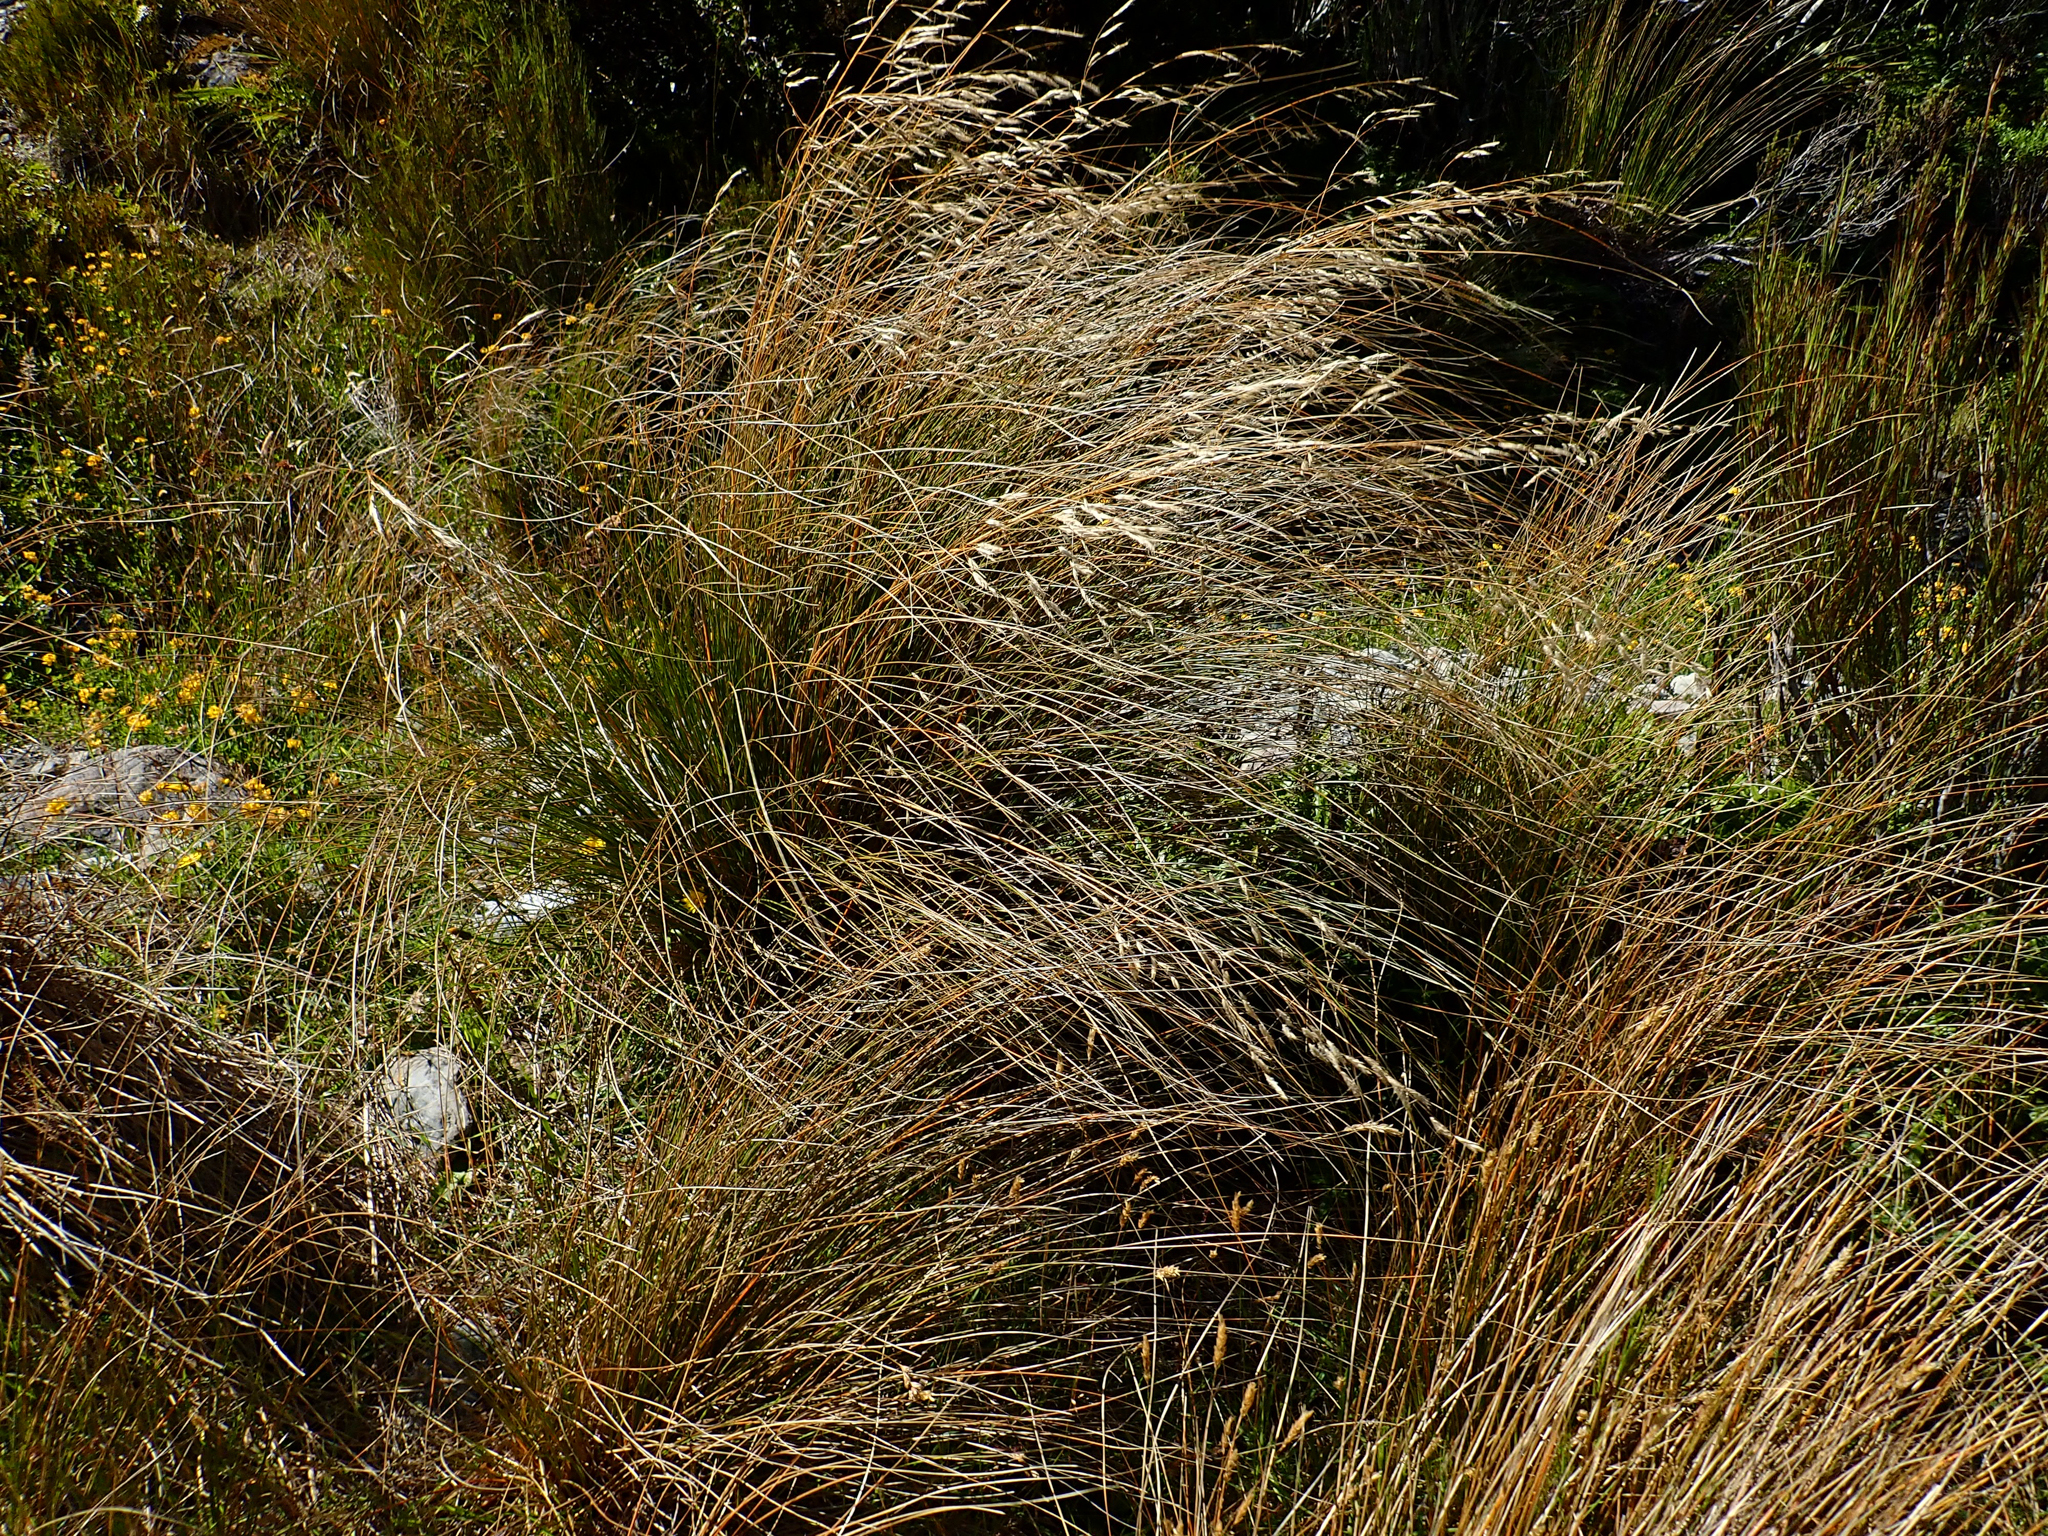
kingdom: Plantae
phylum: Tracheophyta
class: Liliopsida
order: Poales
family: Poaceae
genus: Chionochloa
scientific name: Chionochloa rubra
